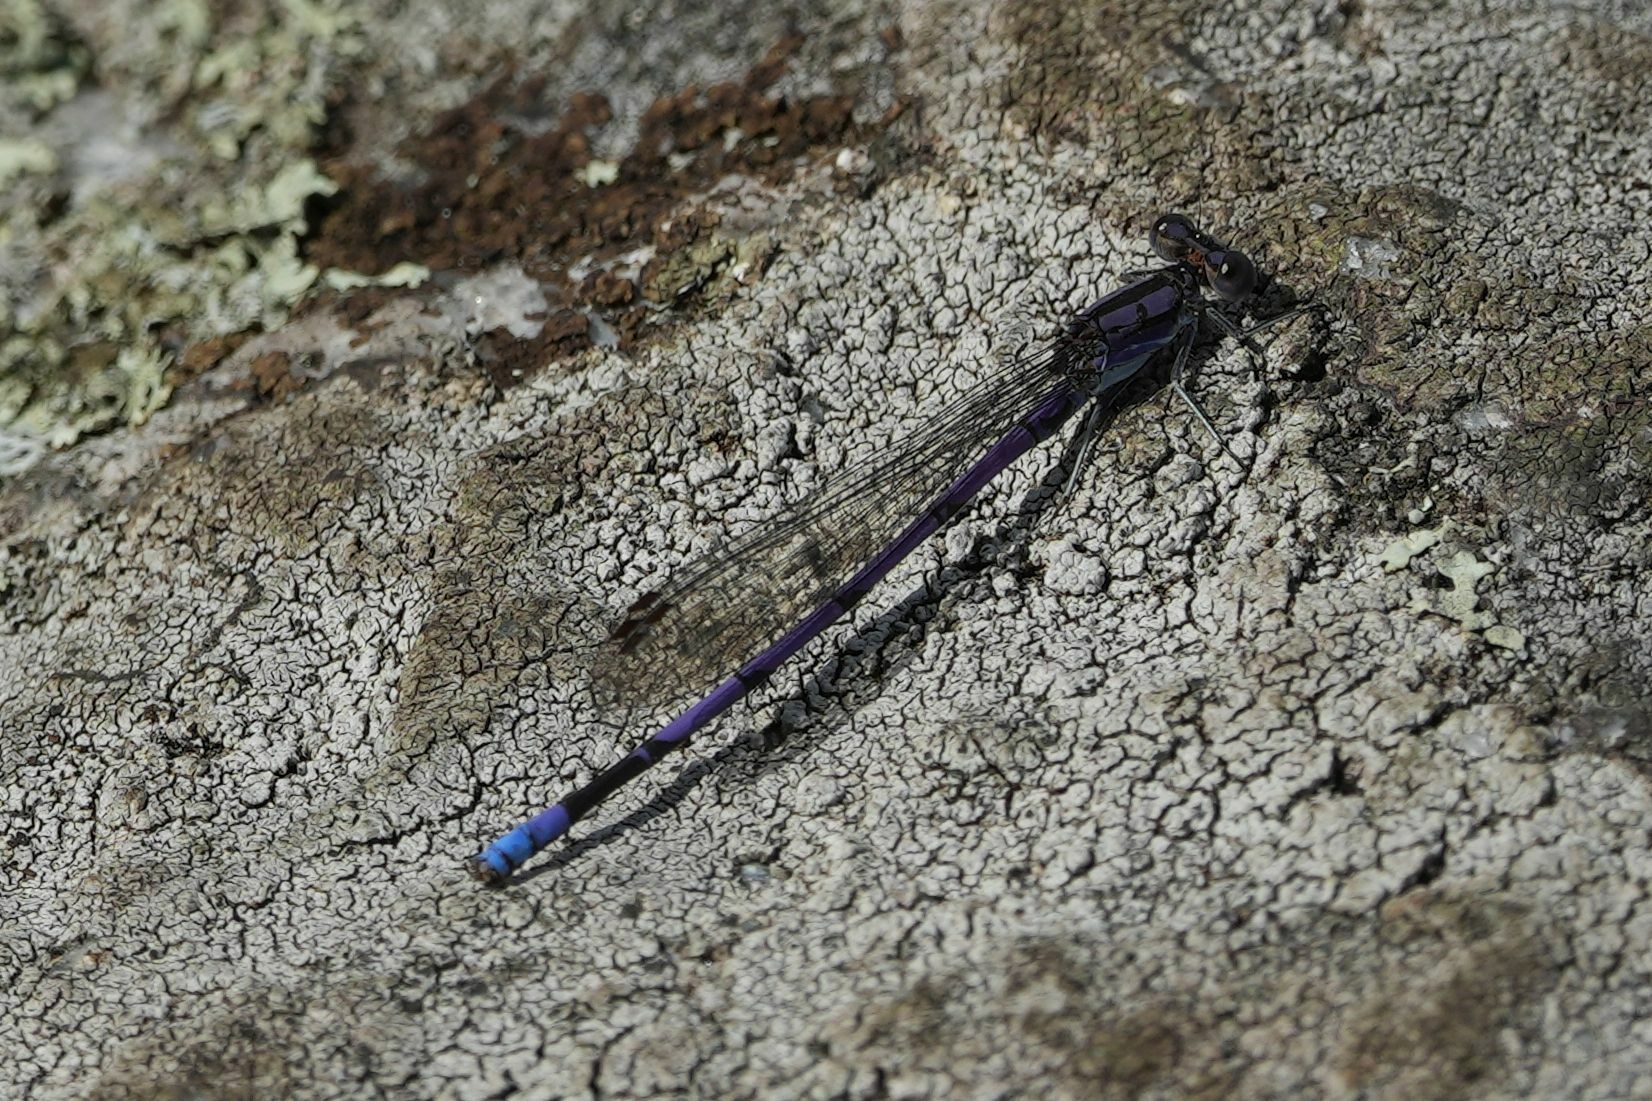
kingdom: Animalia
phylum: Arthropoda
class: Insecta
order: Odonata
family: Coenagrionidae
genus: Argia
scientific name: Argia fumipennis
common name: Variable dancer
